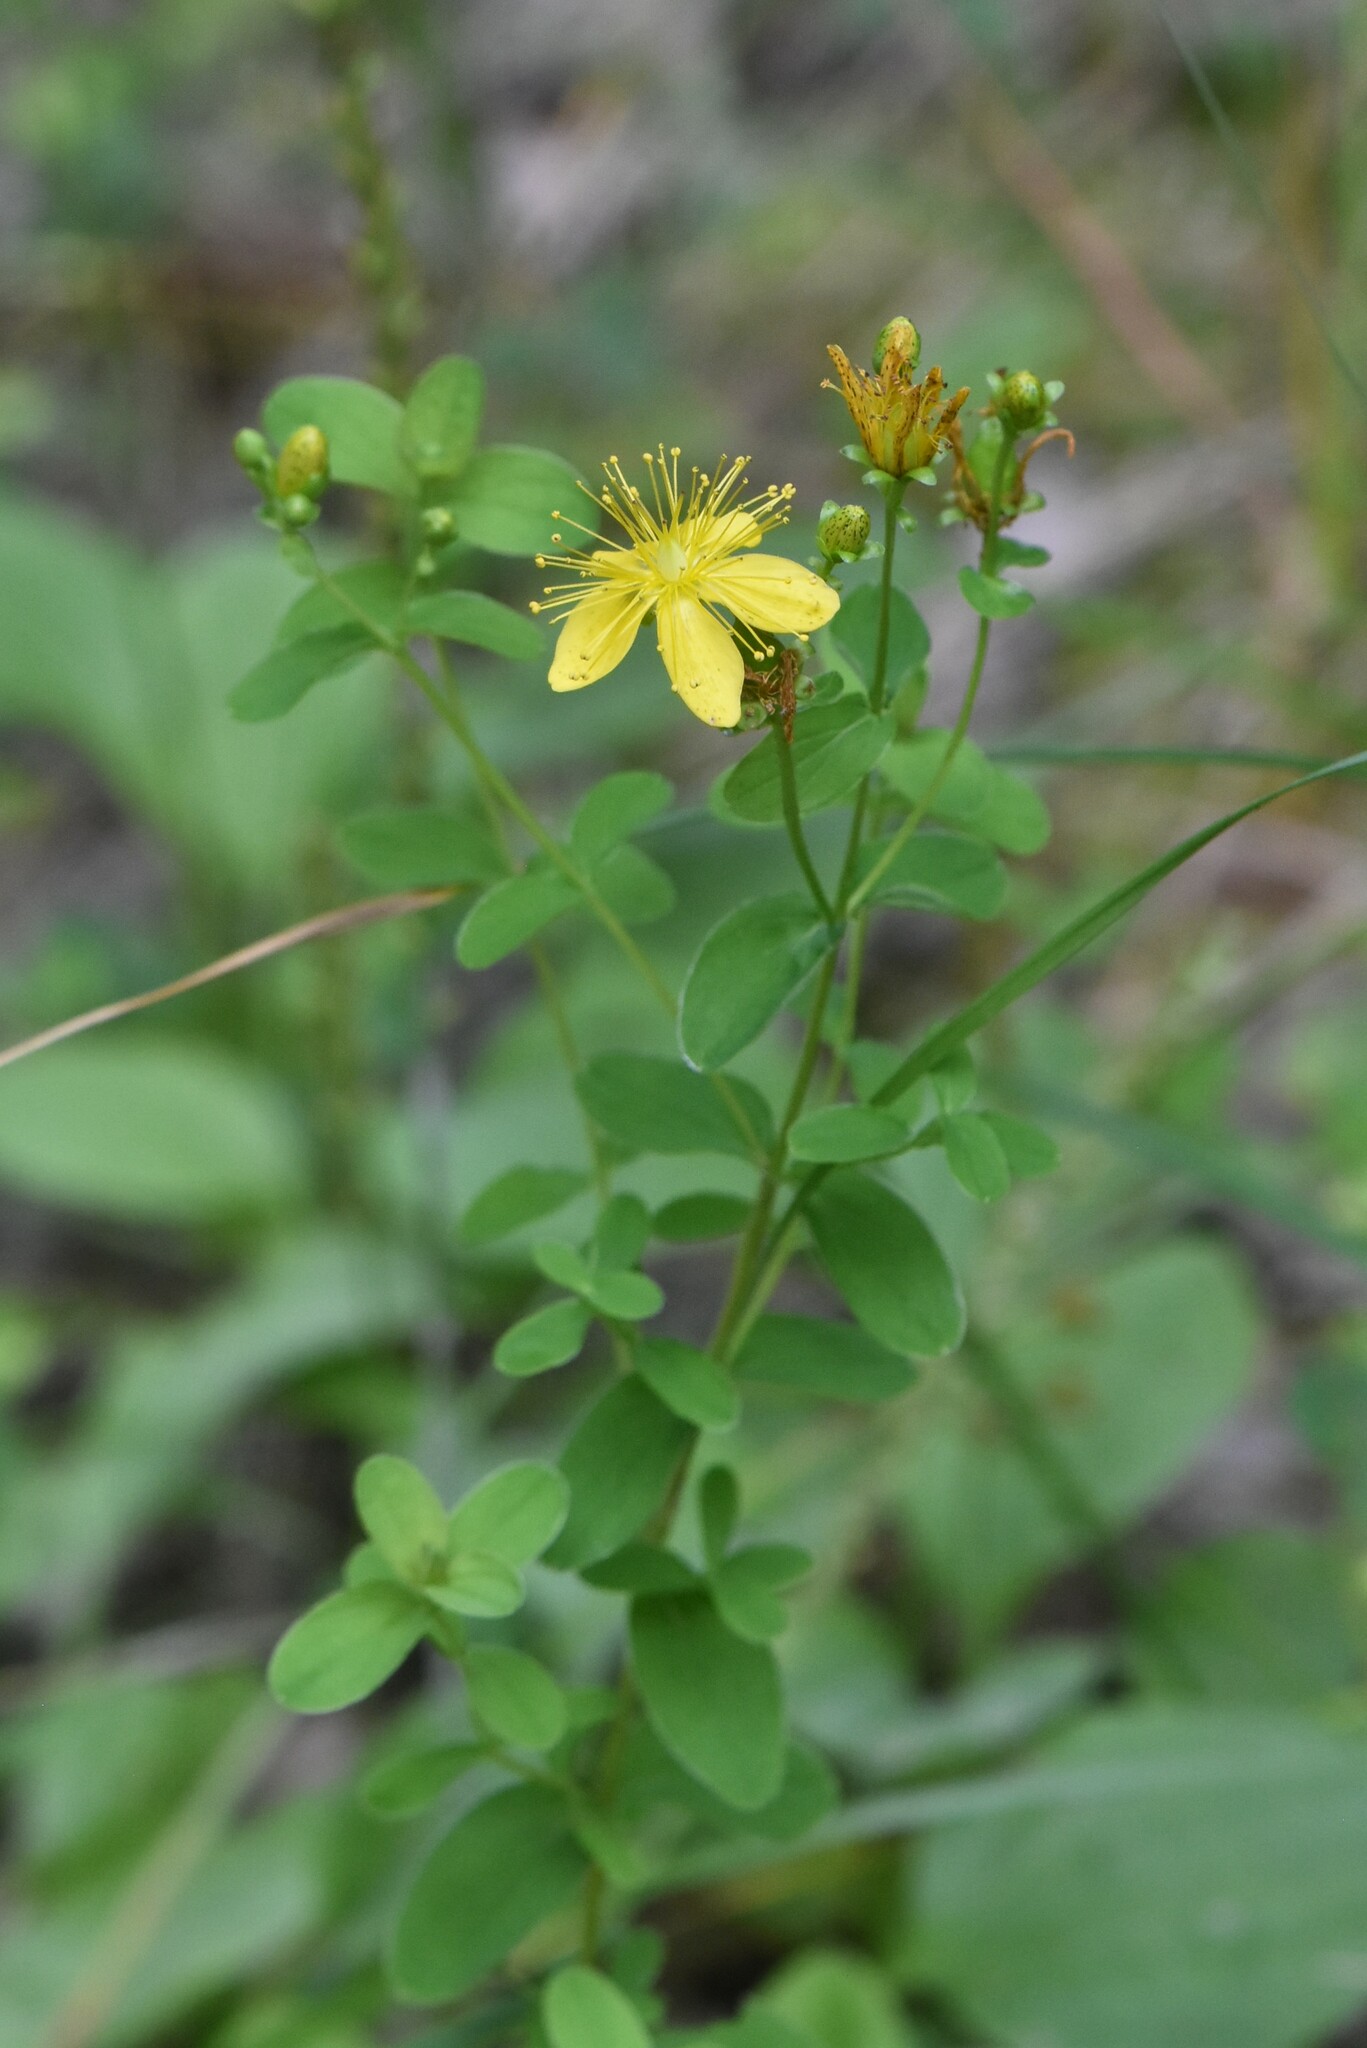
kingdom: Plantae
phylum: Tracheophyta
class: Magnoliopsida
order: Malpighiales
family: Hypericaceae
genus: Hypericum
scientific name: Hypericum maculatum
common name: Imperforate st. john's-wort
